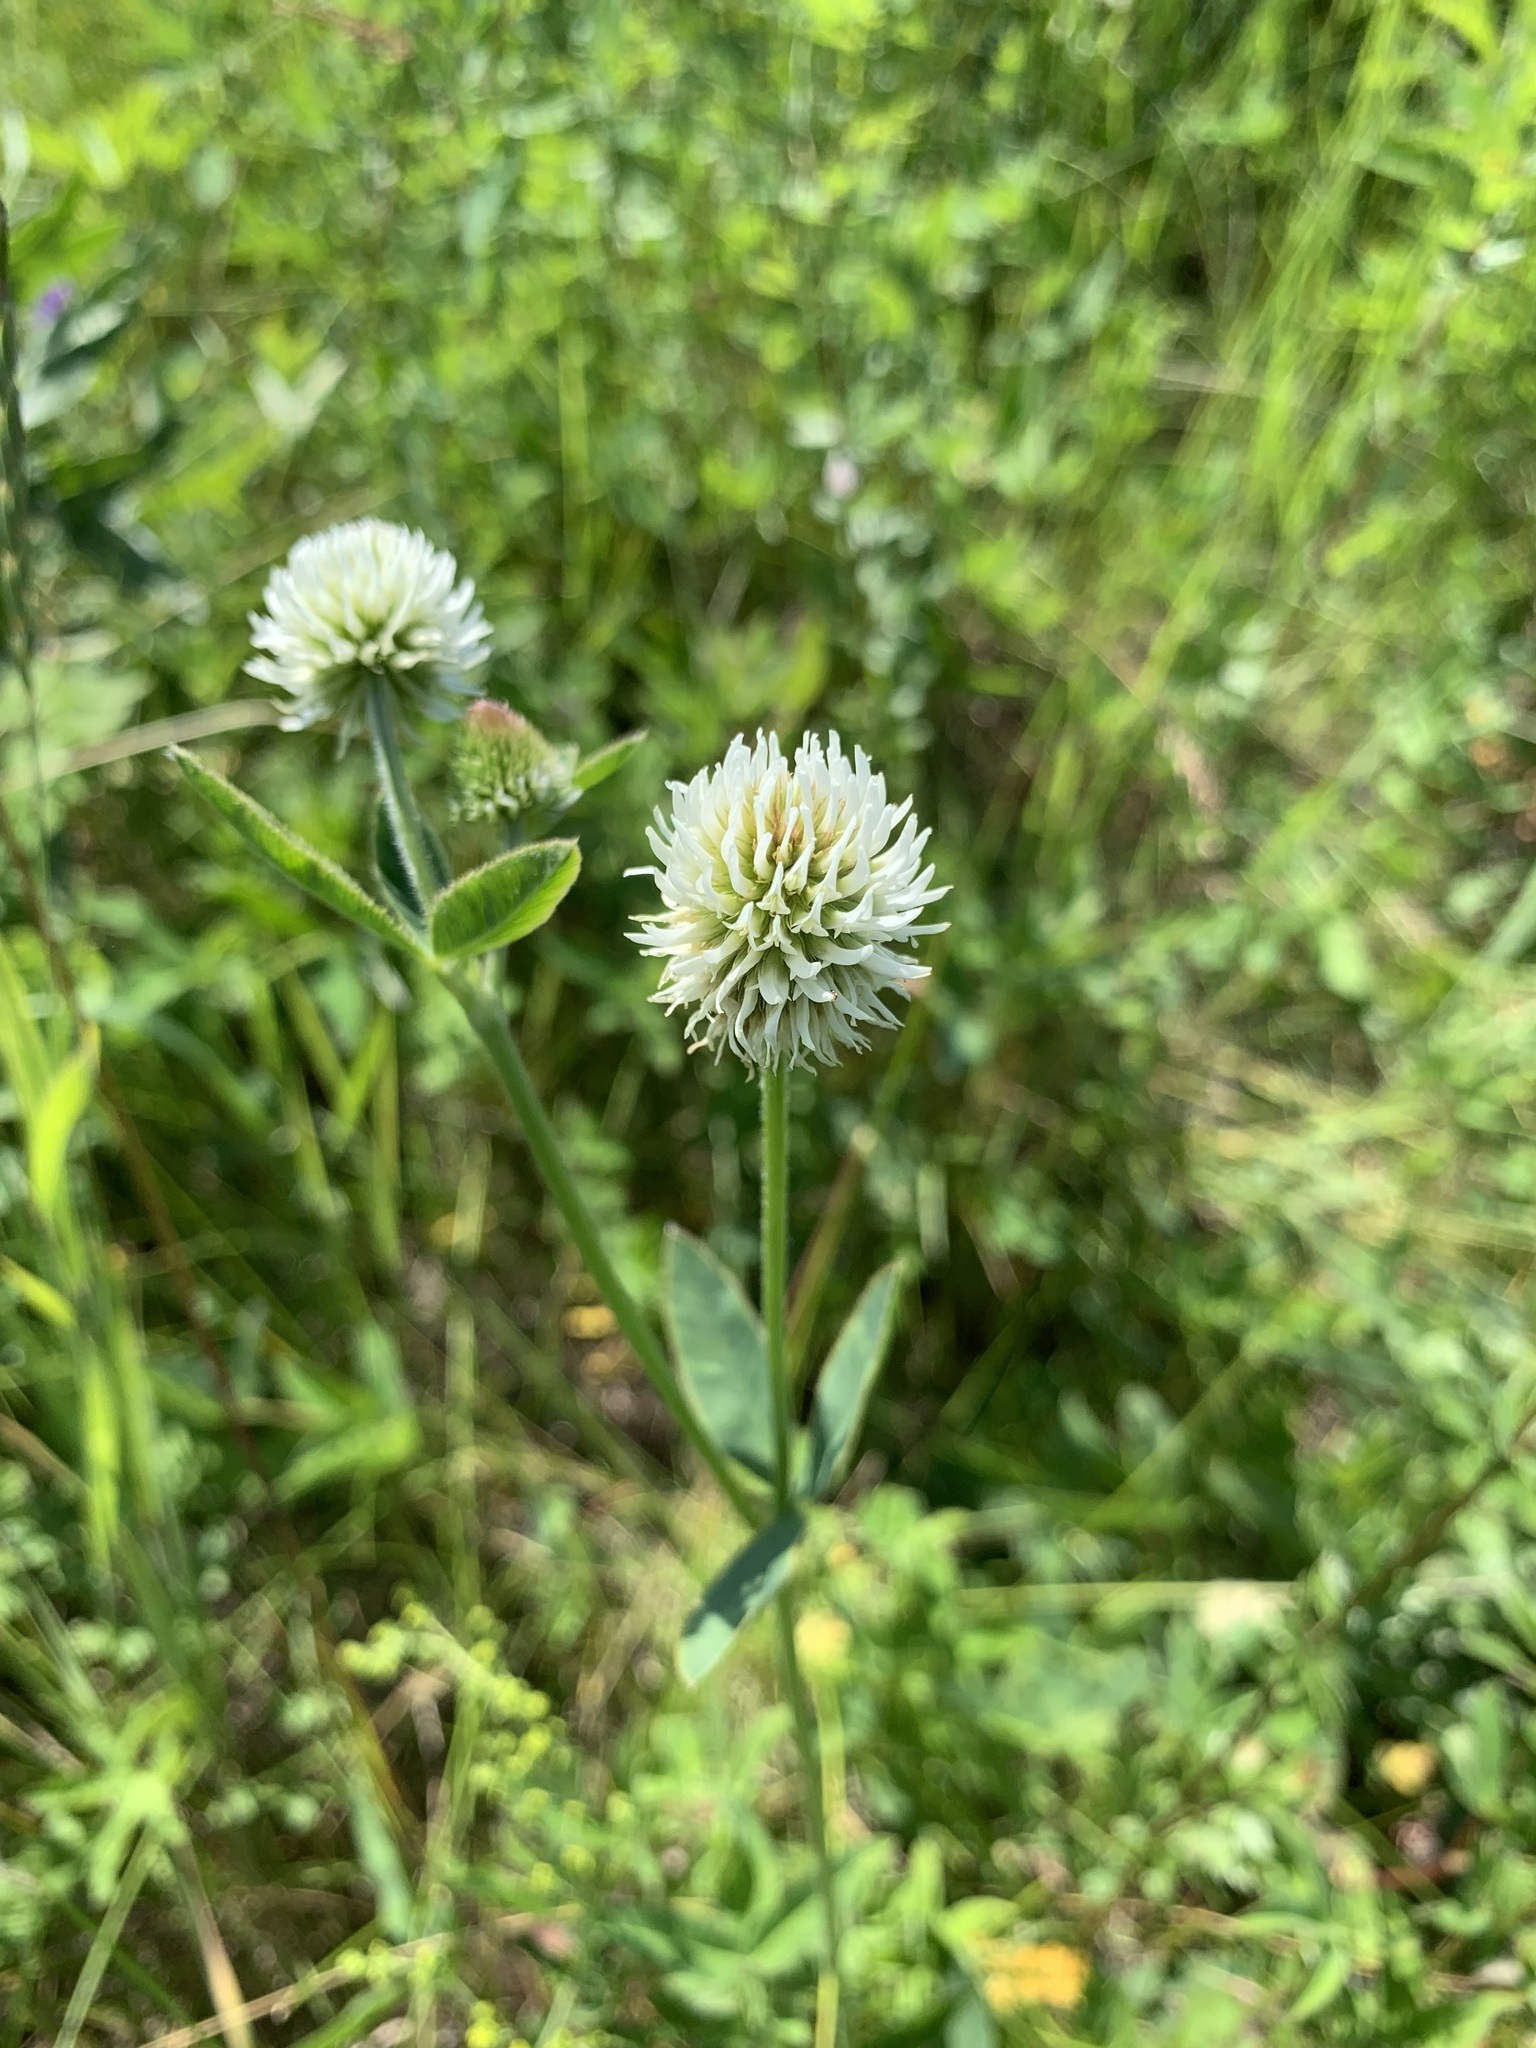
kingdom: Plantae
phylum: Tracheophyta
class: Magnoliopsida
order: Fabales
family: Fabaceae
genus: Trifolium
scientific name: Trifolium montanum
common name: Mountain clover
